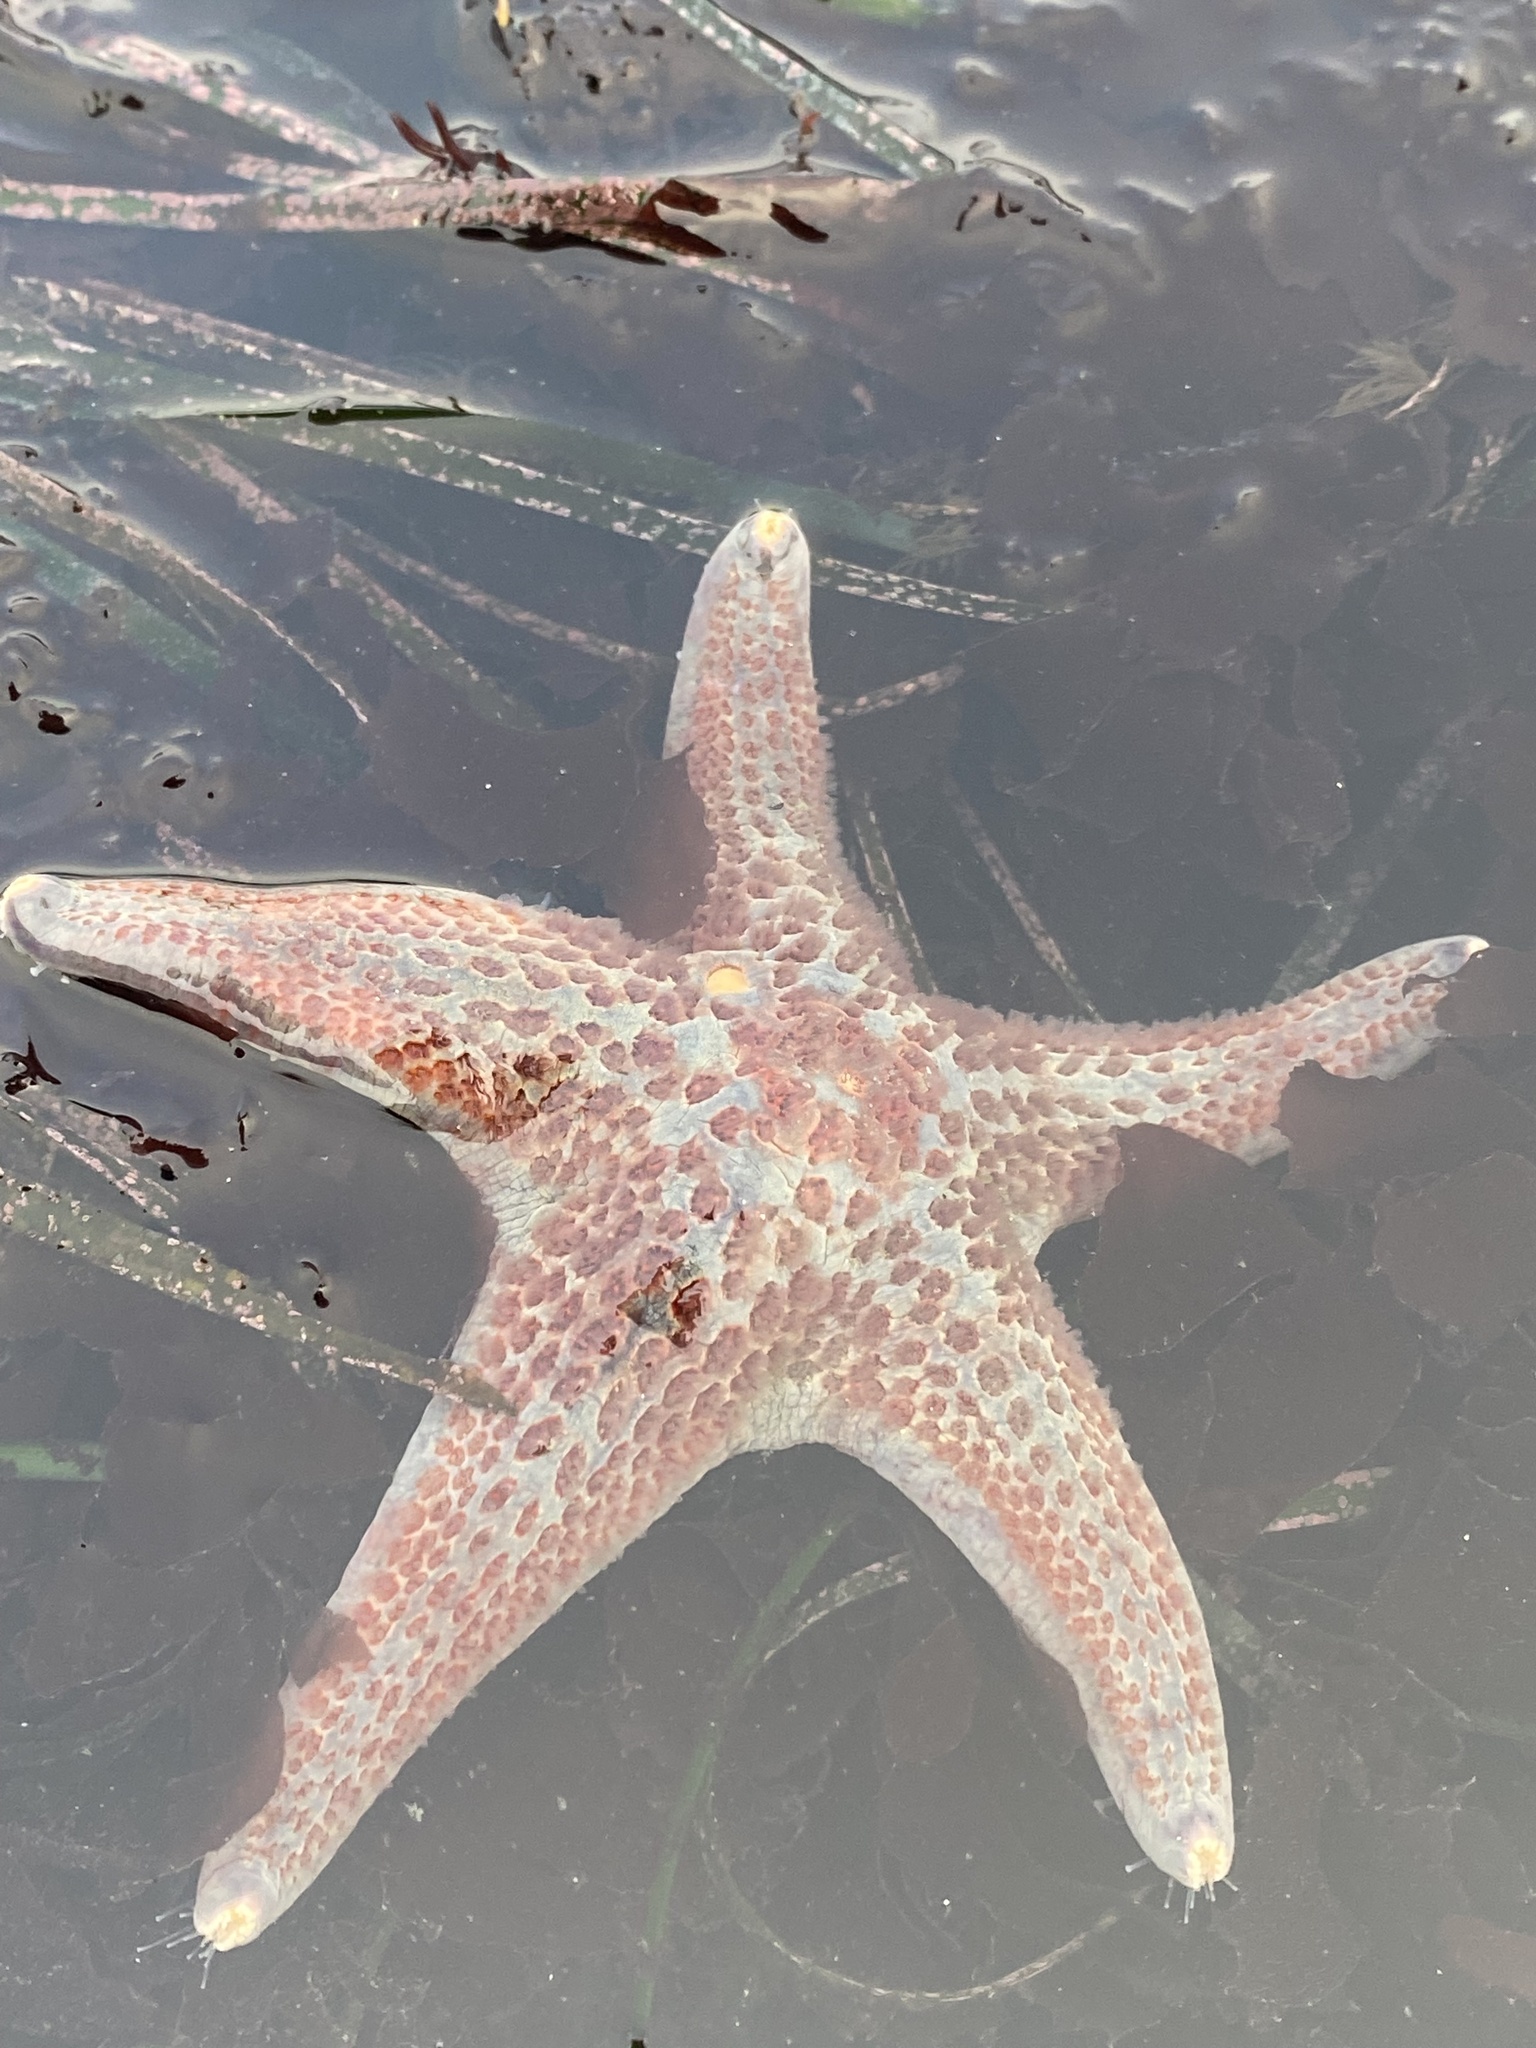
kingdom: Animalia
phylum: Echinodermata
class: Asteroidea
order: Valvatida
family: Asteropseidae
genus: Dermasterias
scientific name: Dermasterias imbricata
